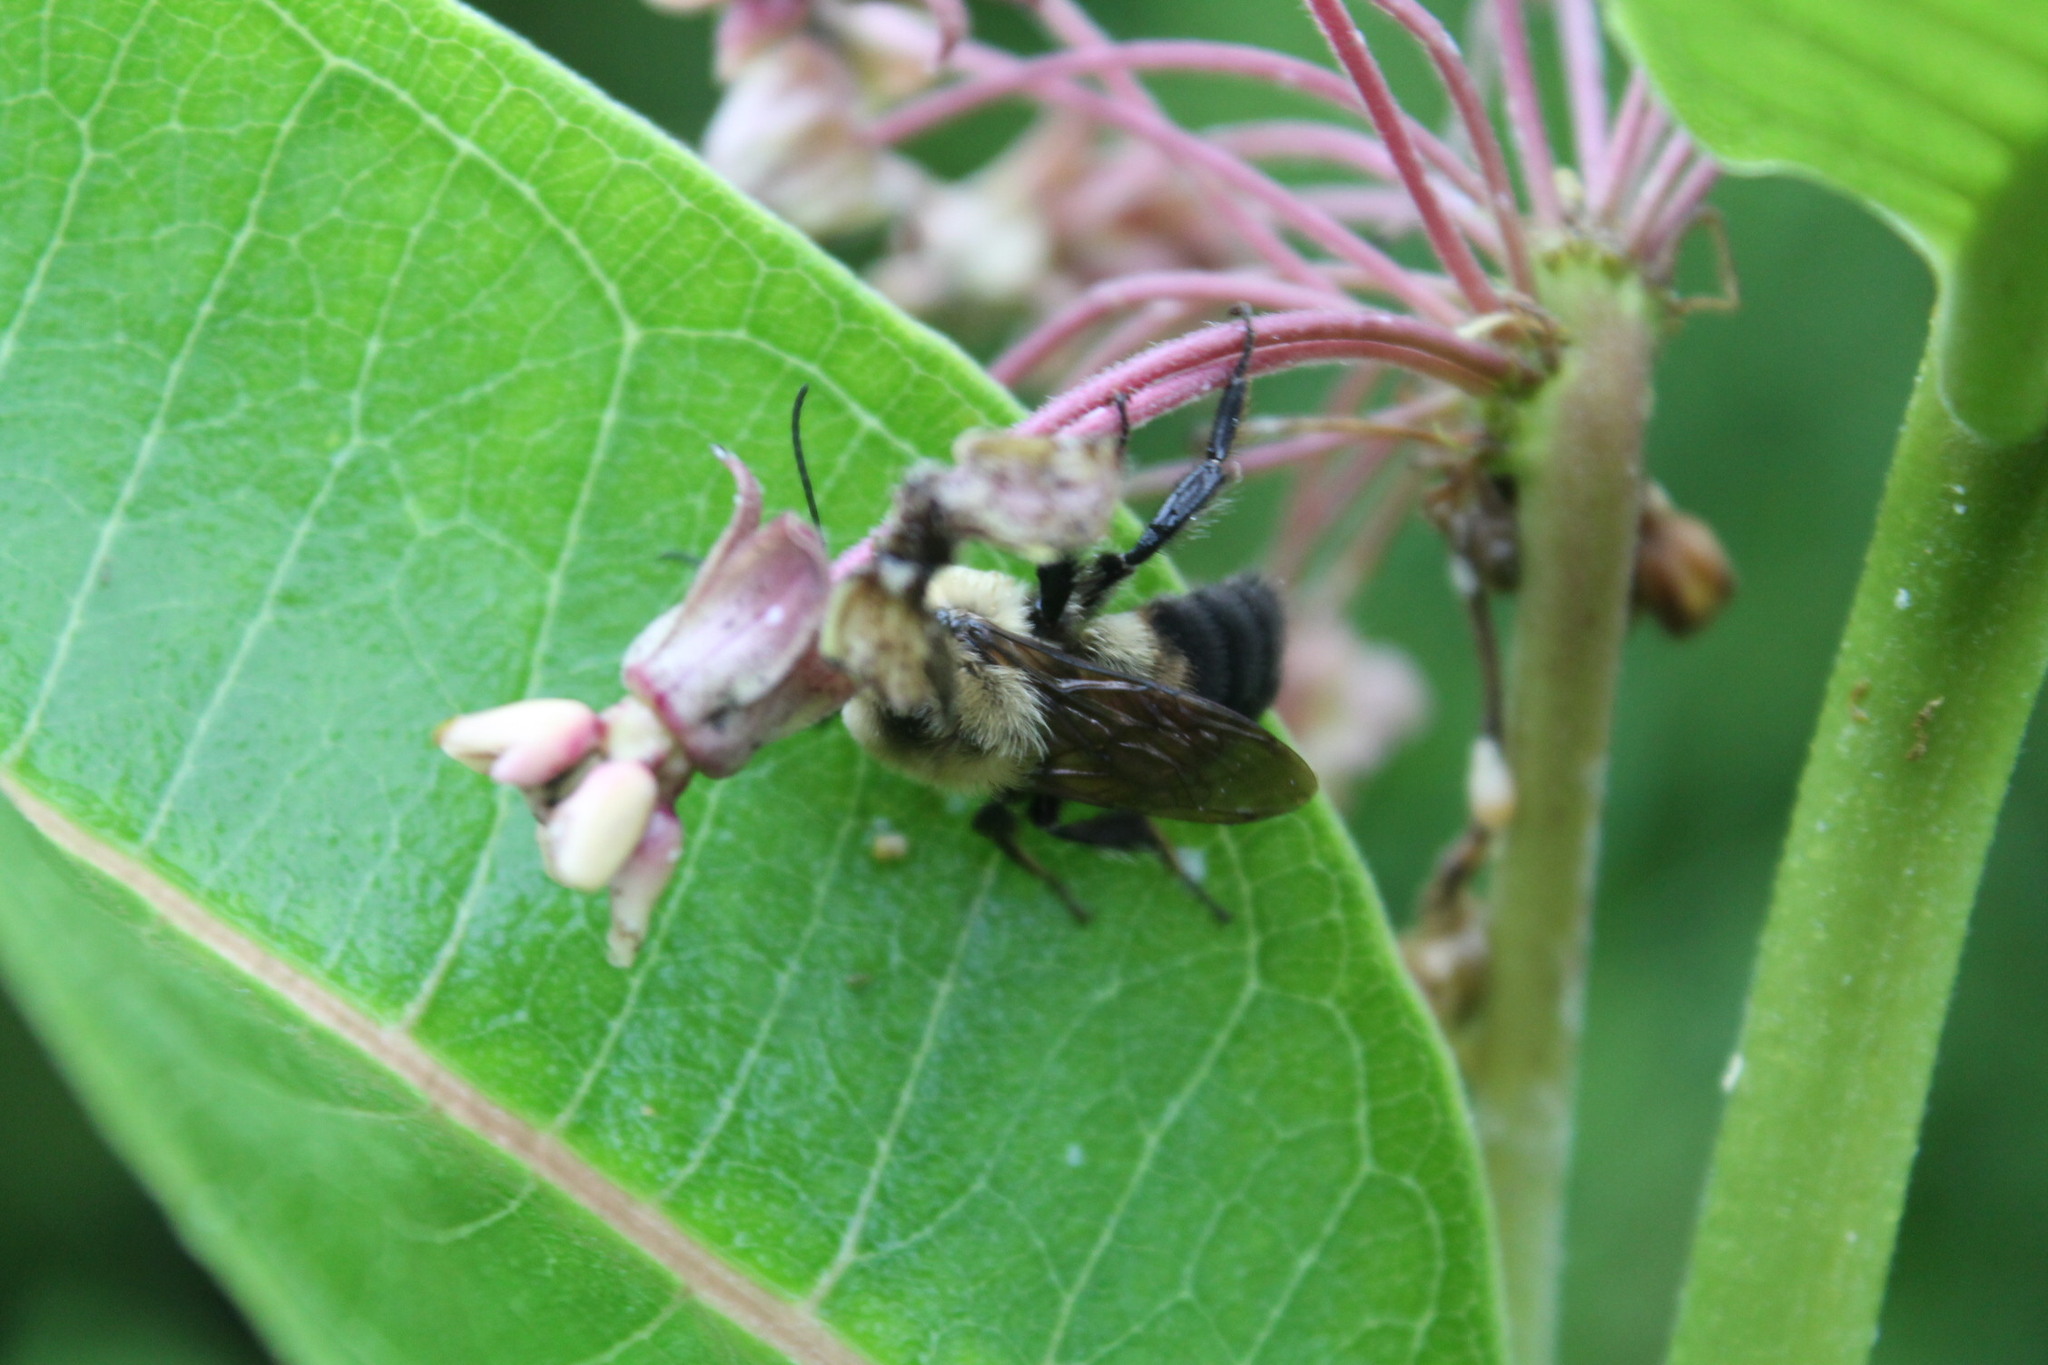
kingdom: Animalia
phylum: Arthropoda
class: Insecta
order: Hymenoptera
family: Apidae
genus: Bombus
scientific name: Bombus griseocollis
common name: Brown-belted bumble bee
